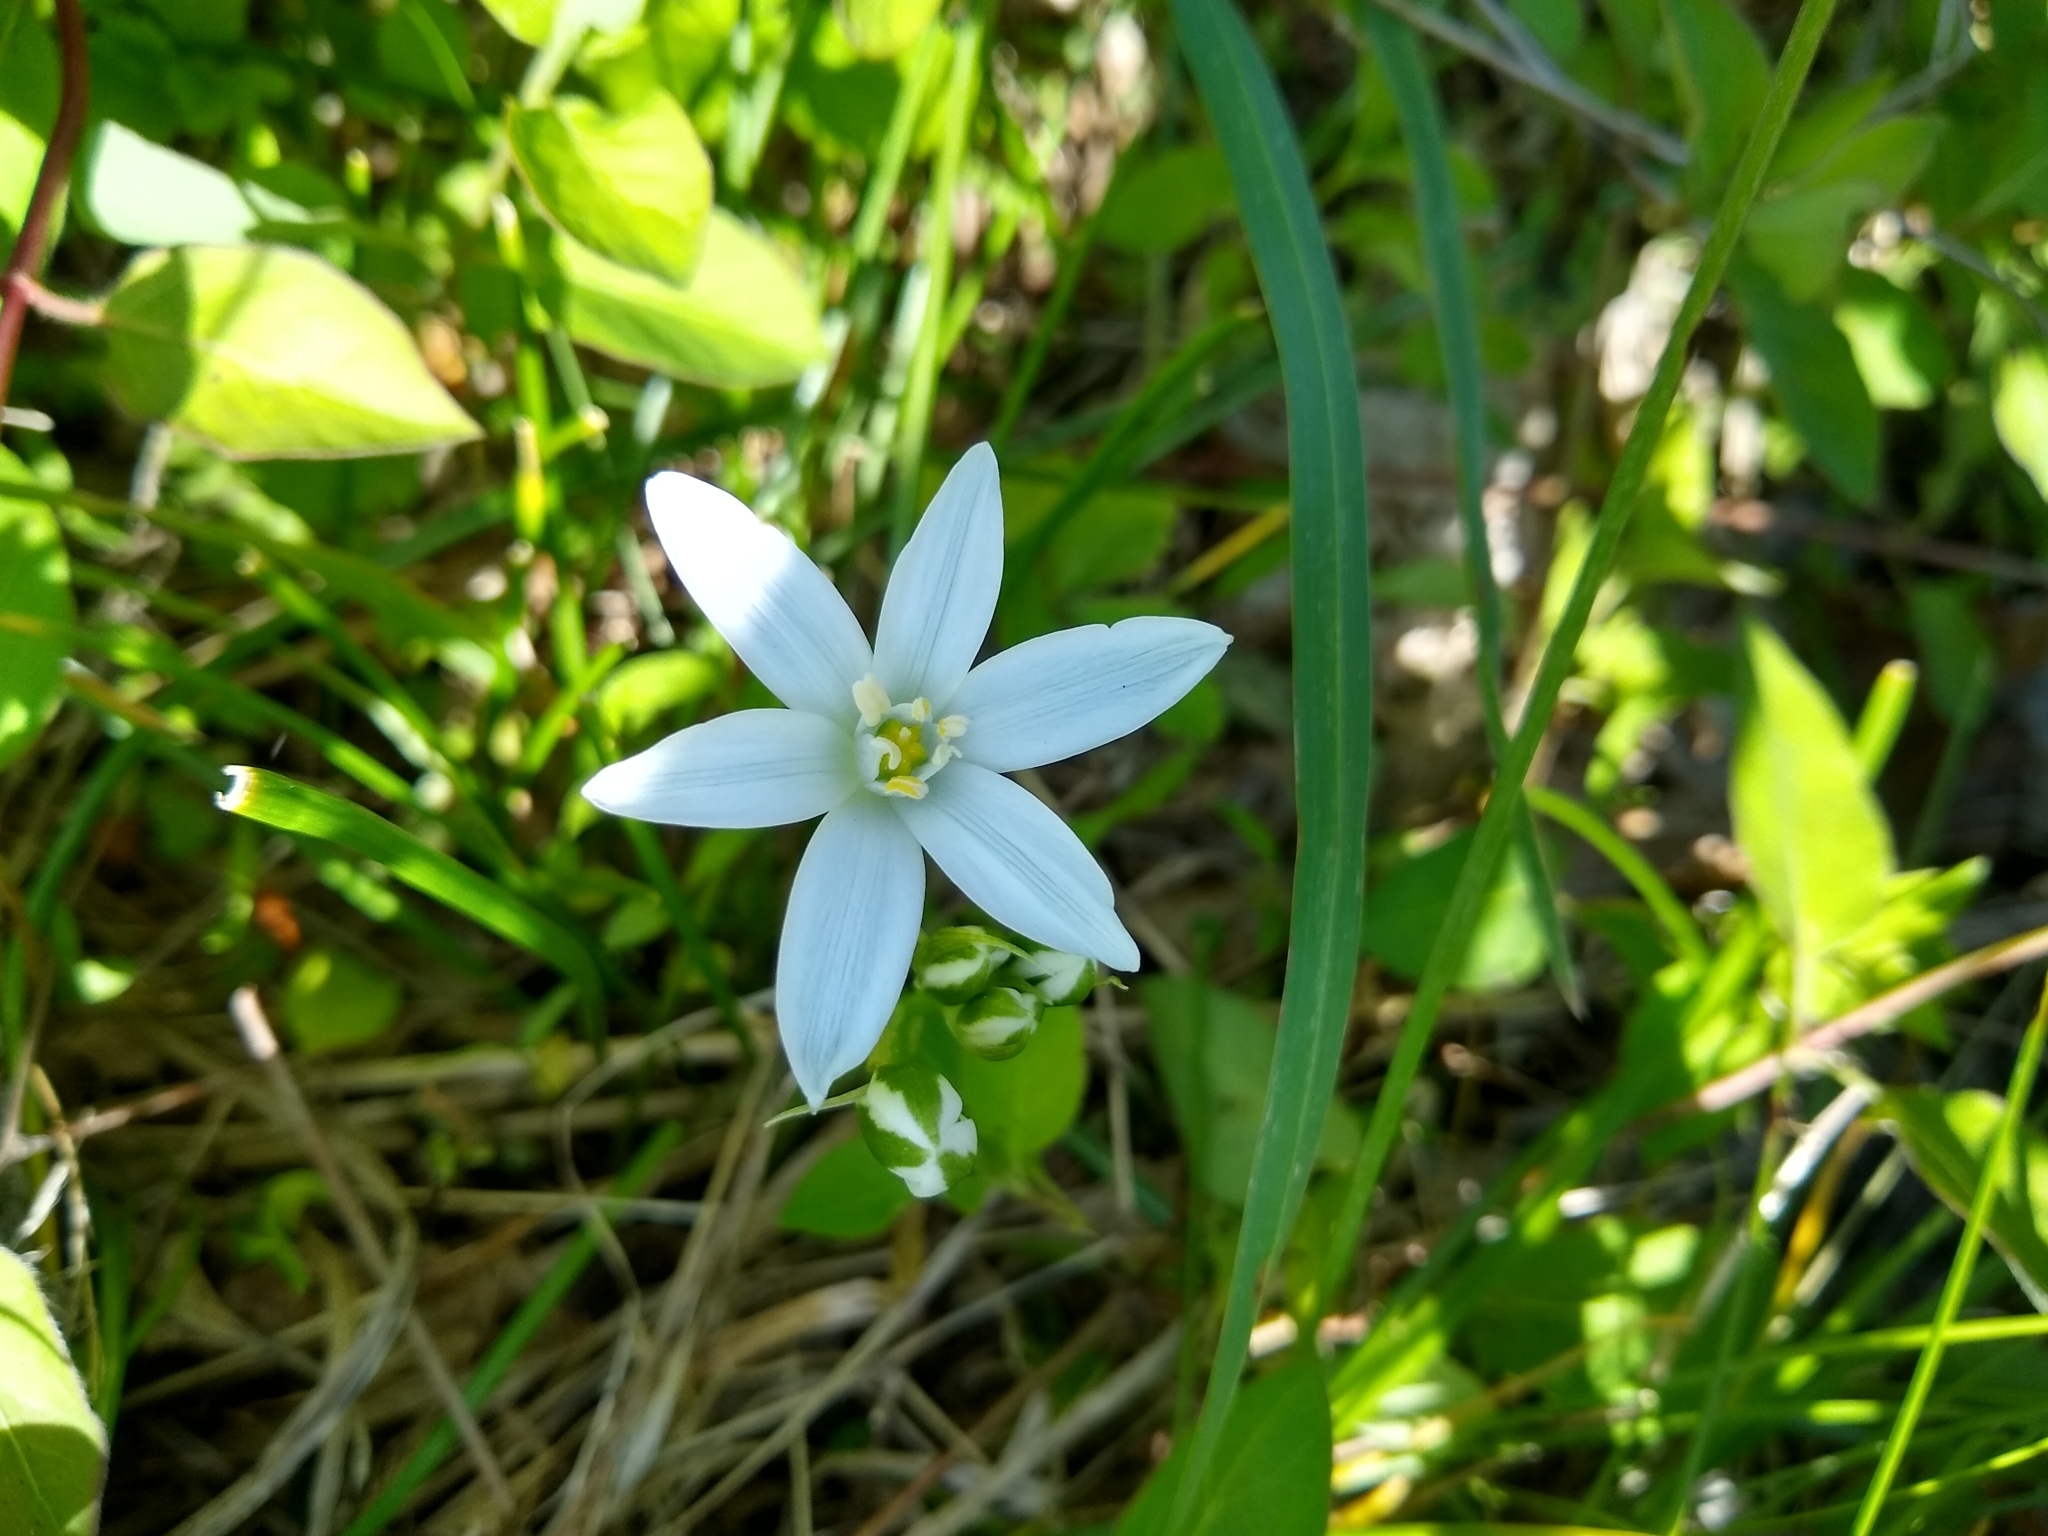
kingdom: Plantae
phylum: Tracheophyta
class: Liliopsida
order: Asparagales
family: Asparagaceae
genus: Ornithogalum
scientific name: Ornithogalum umbellatum
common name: Garden star-of-bethlehem
